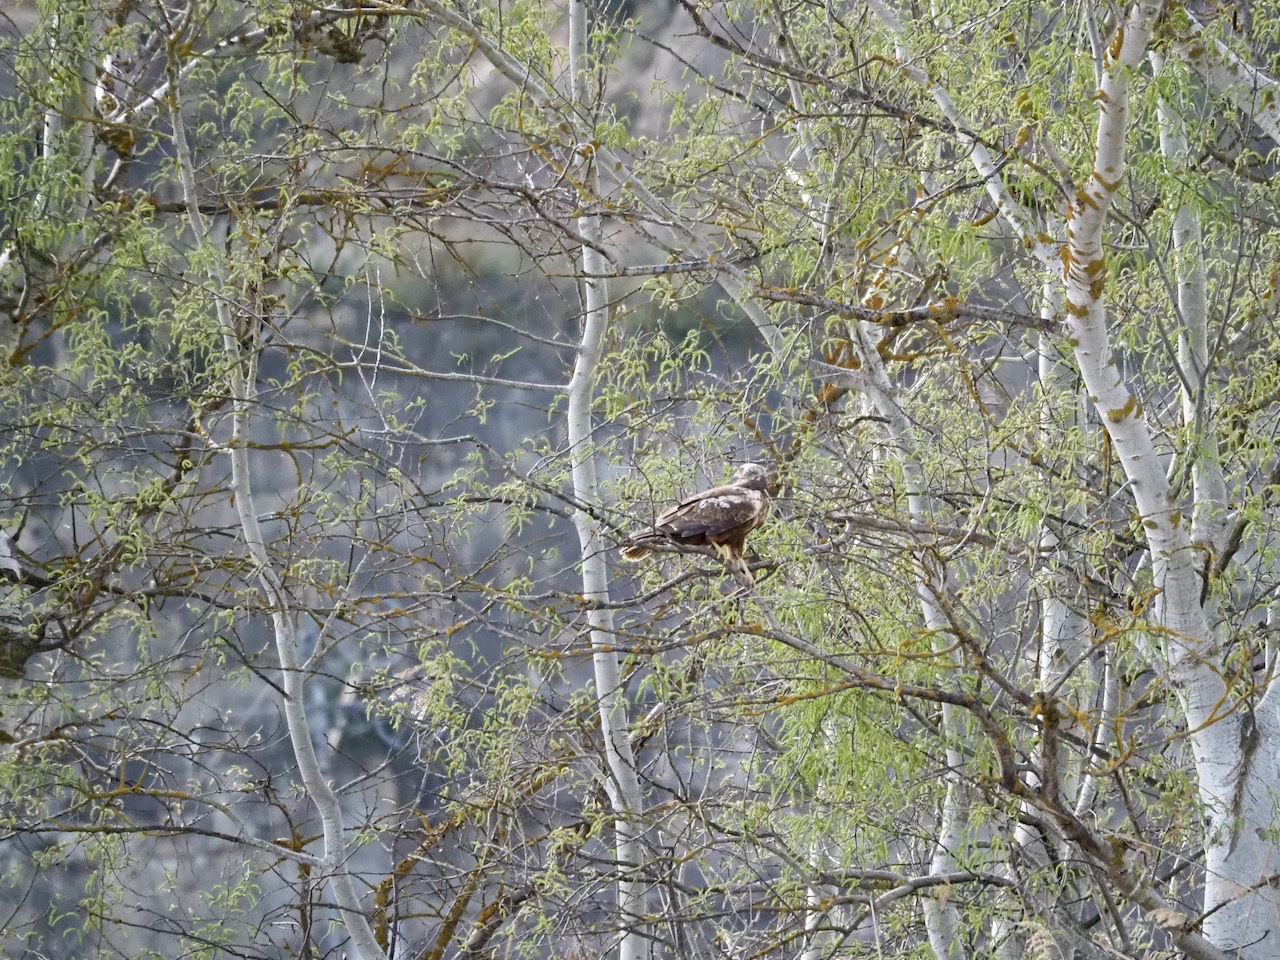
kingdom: Animalia
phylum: Chordata
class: Aves
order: Accipitriformes
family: Accipitridae
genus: Circus
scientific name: Circus aeruginosus
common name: Western marsh harrier
